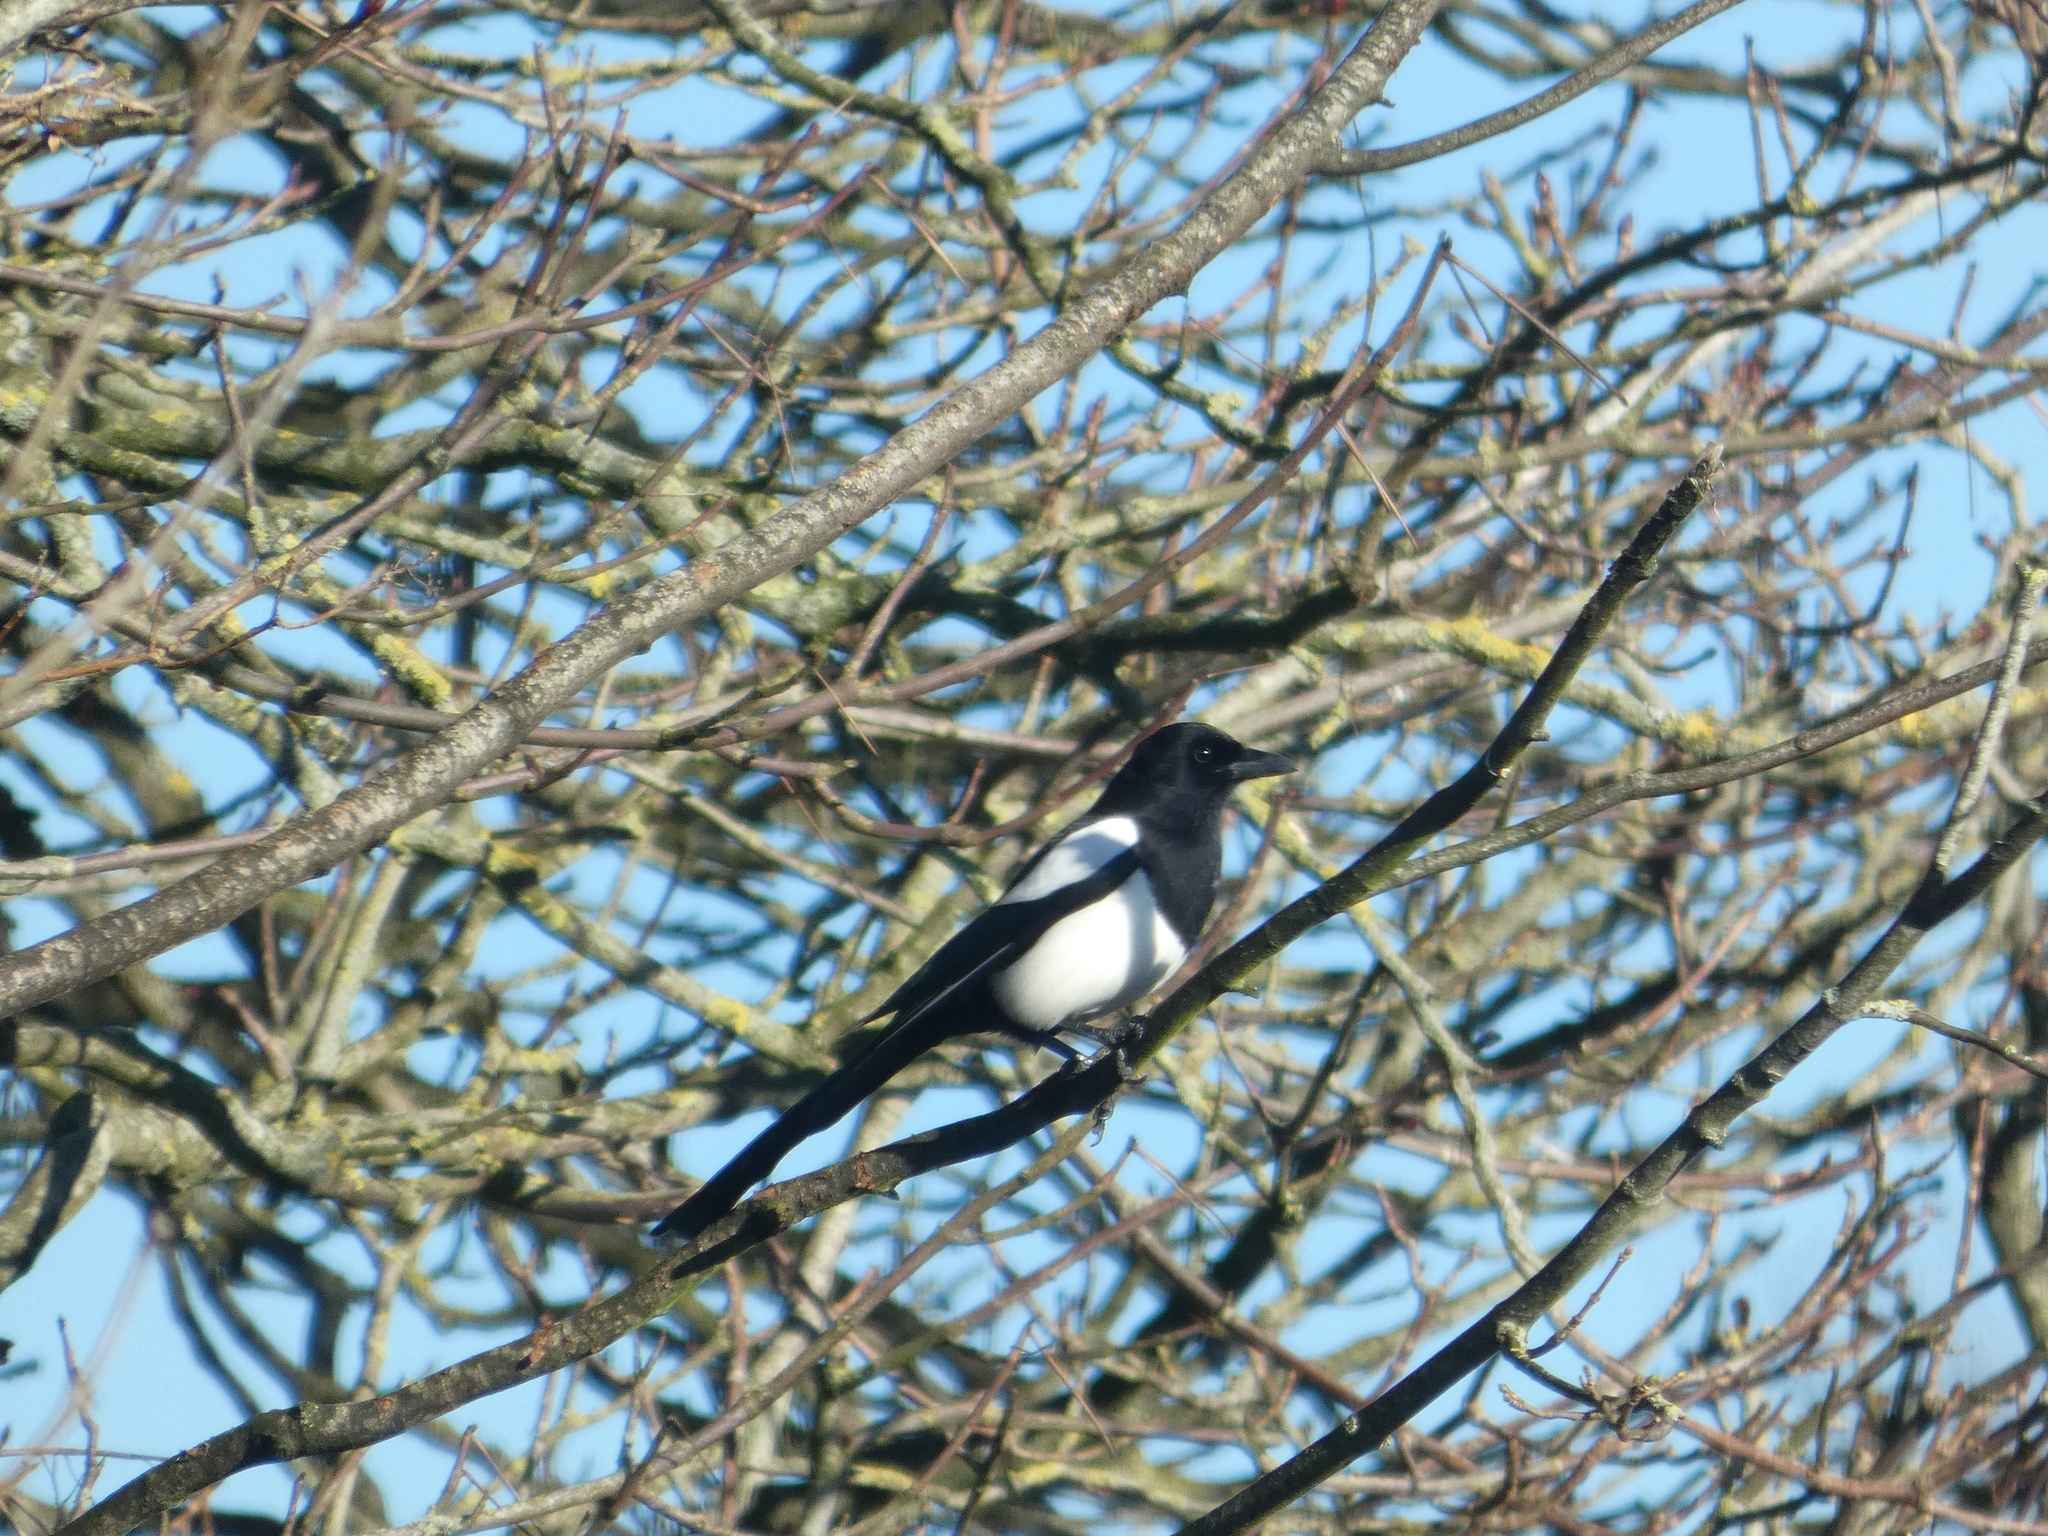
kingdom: Animalia
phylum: Chordata
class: Aves
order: Passeriformes
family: Corvidae
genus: Pica
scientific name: Pica pica
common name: Eurasian magpie
